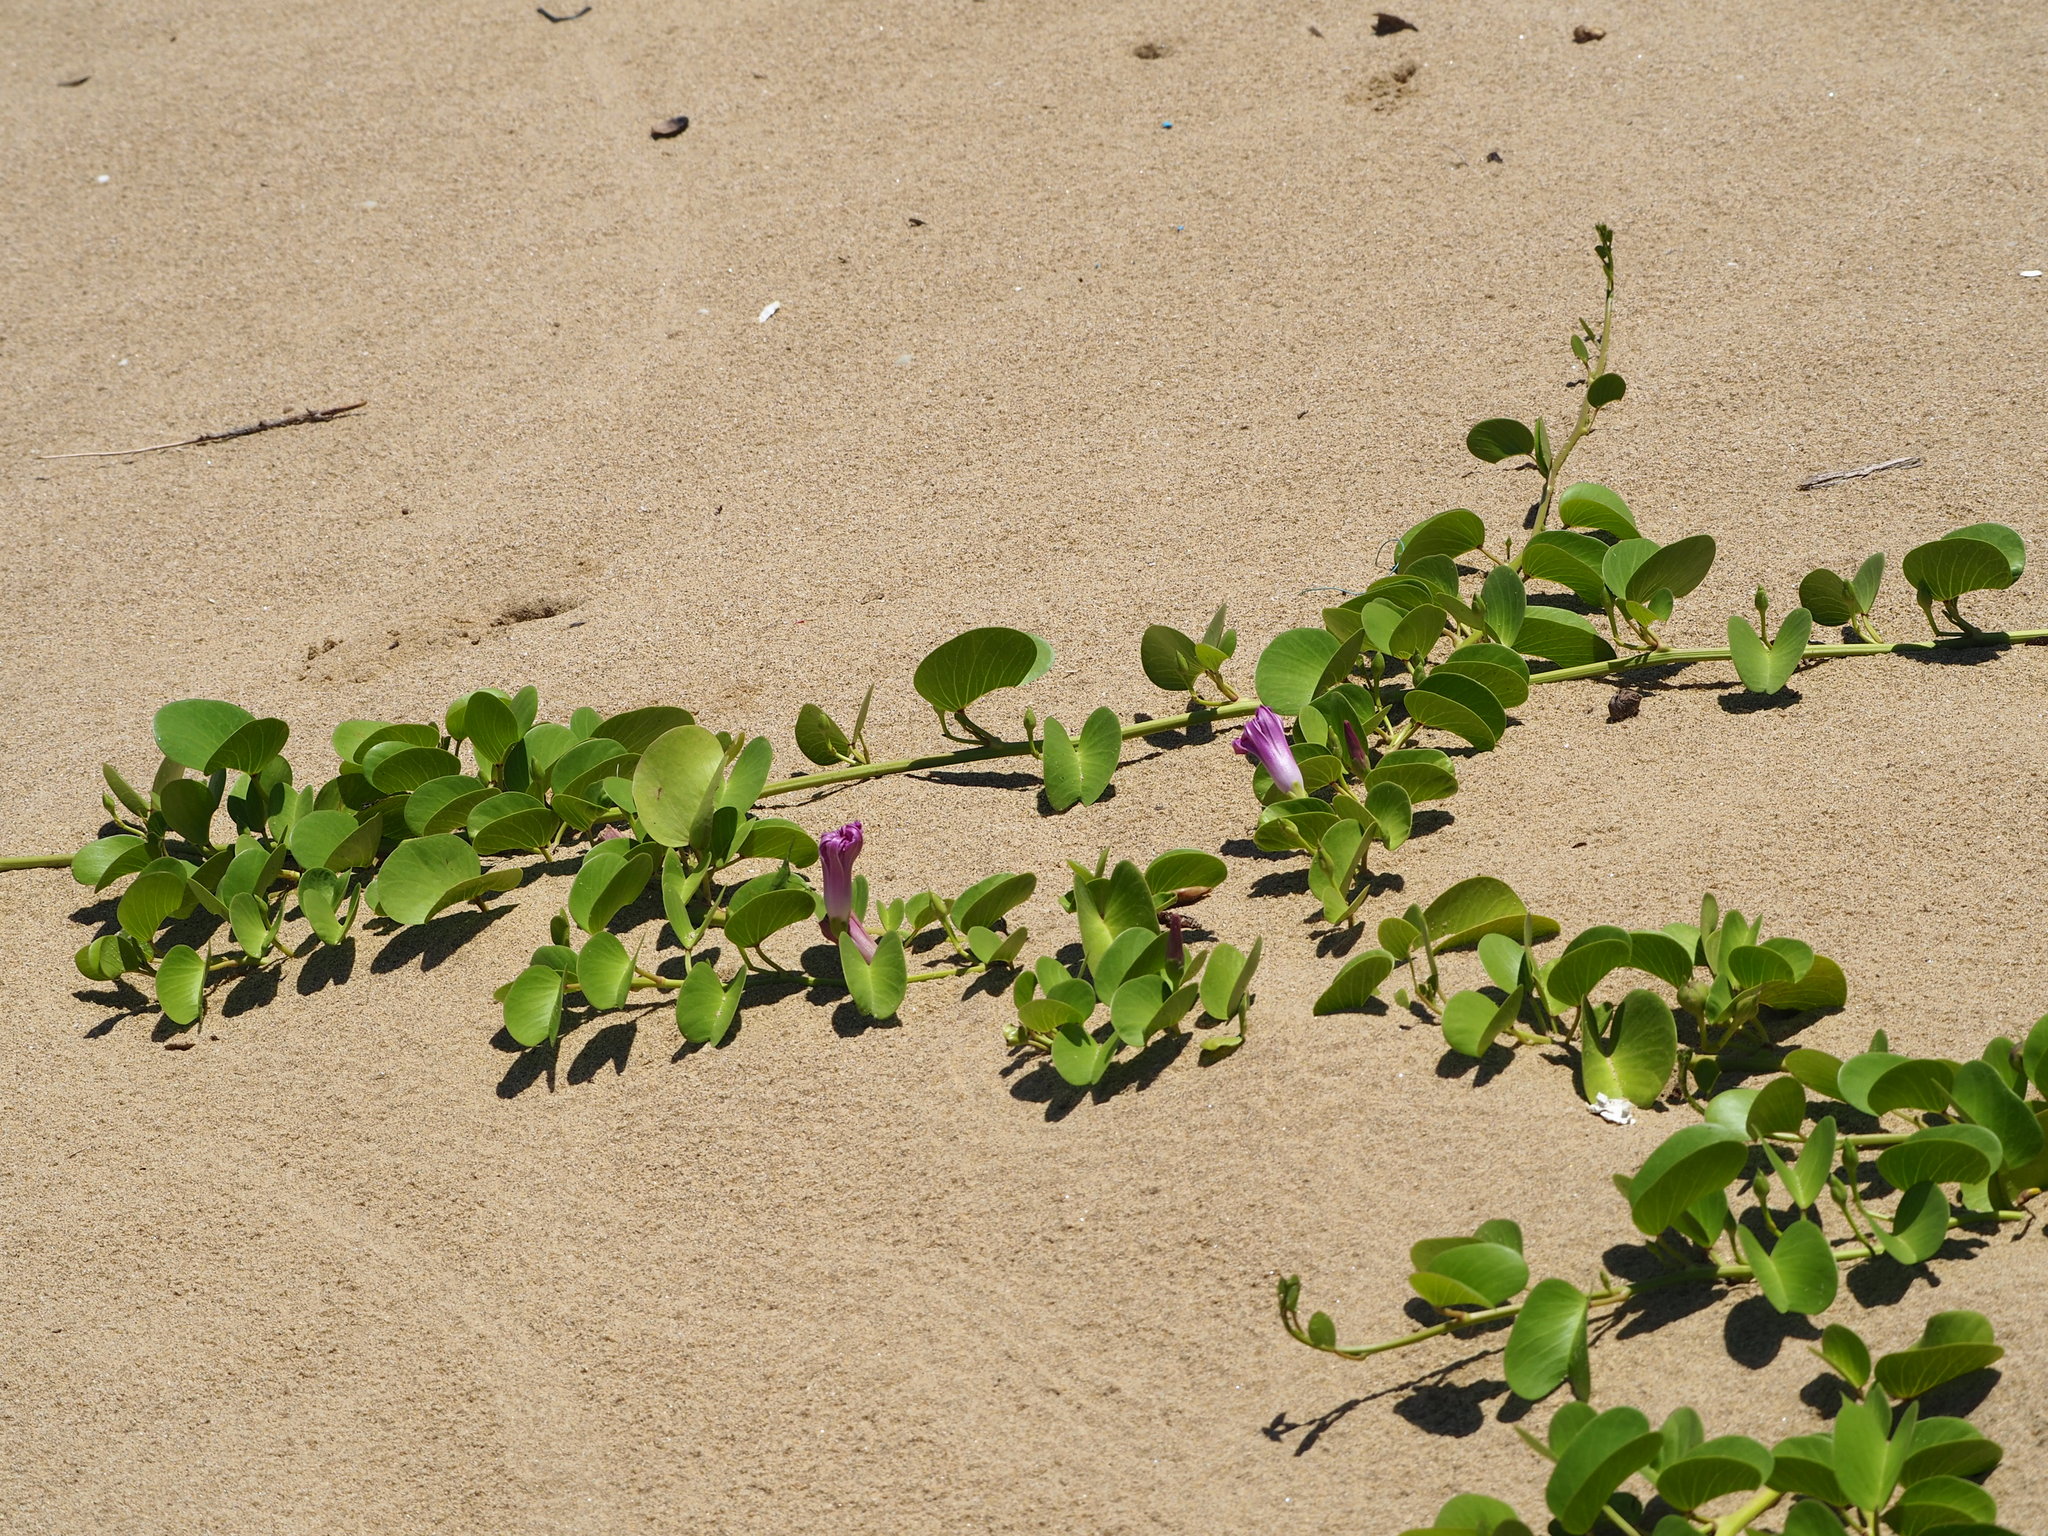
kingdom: Plantae
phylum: Tracheophyta
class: Magnoliopsida
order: Solanales
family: Convolvulaceae
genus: Ipomoea
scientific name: Ipomoea pes-caprae
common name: Beach morning glory
